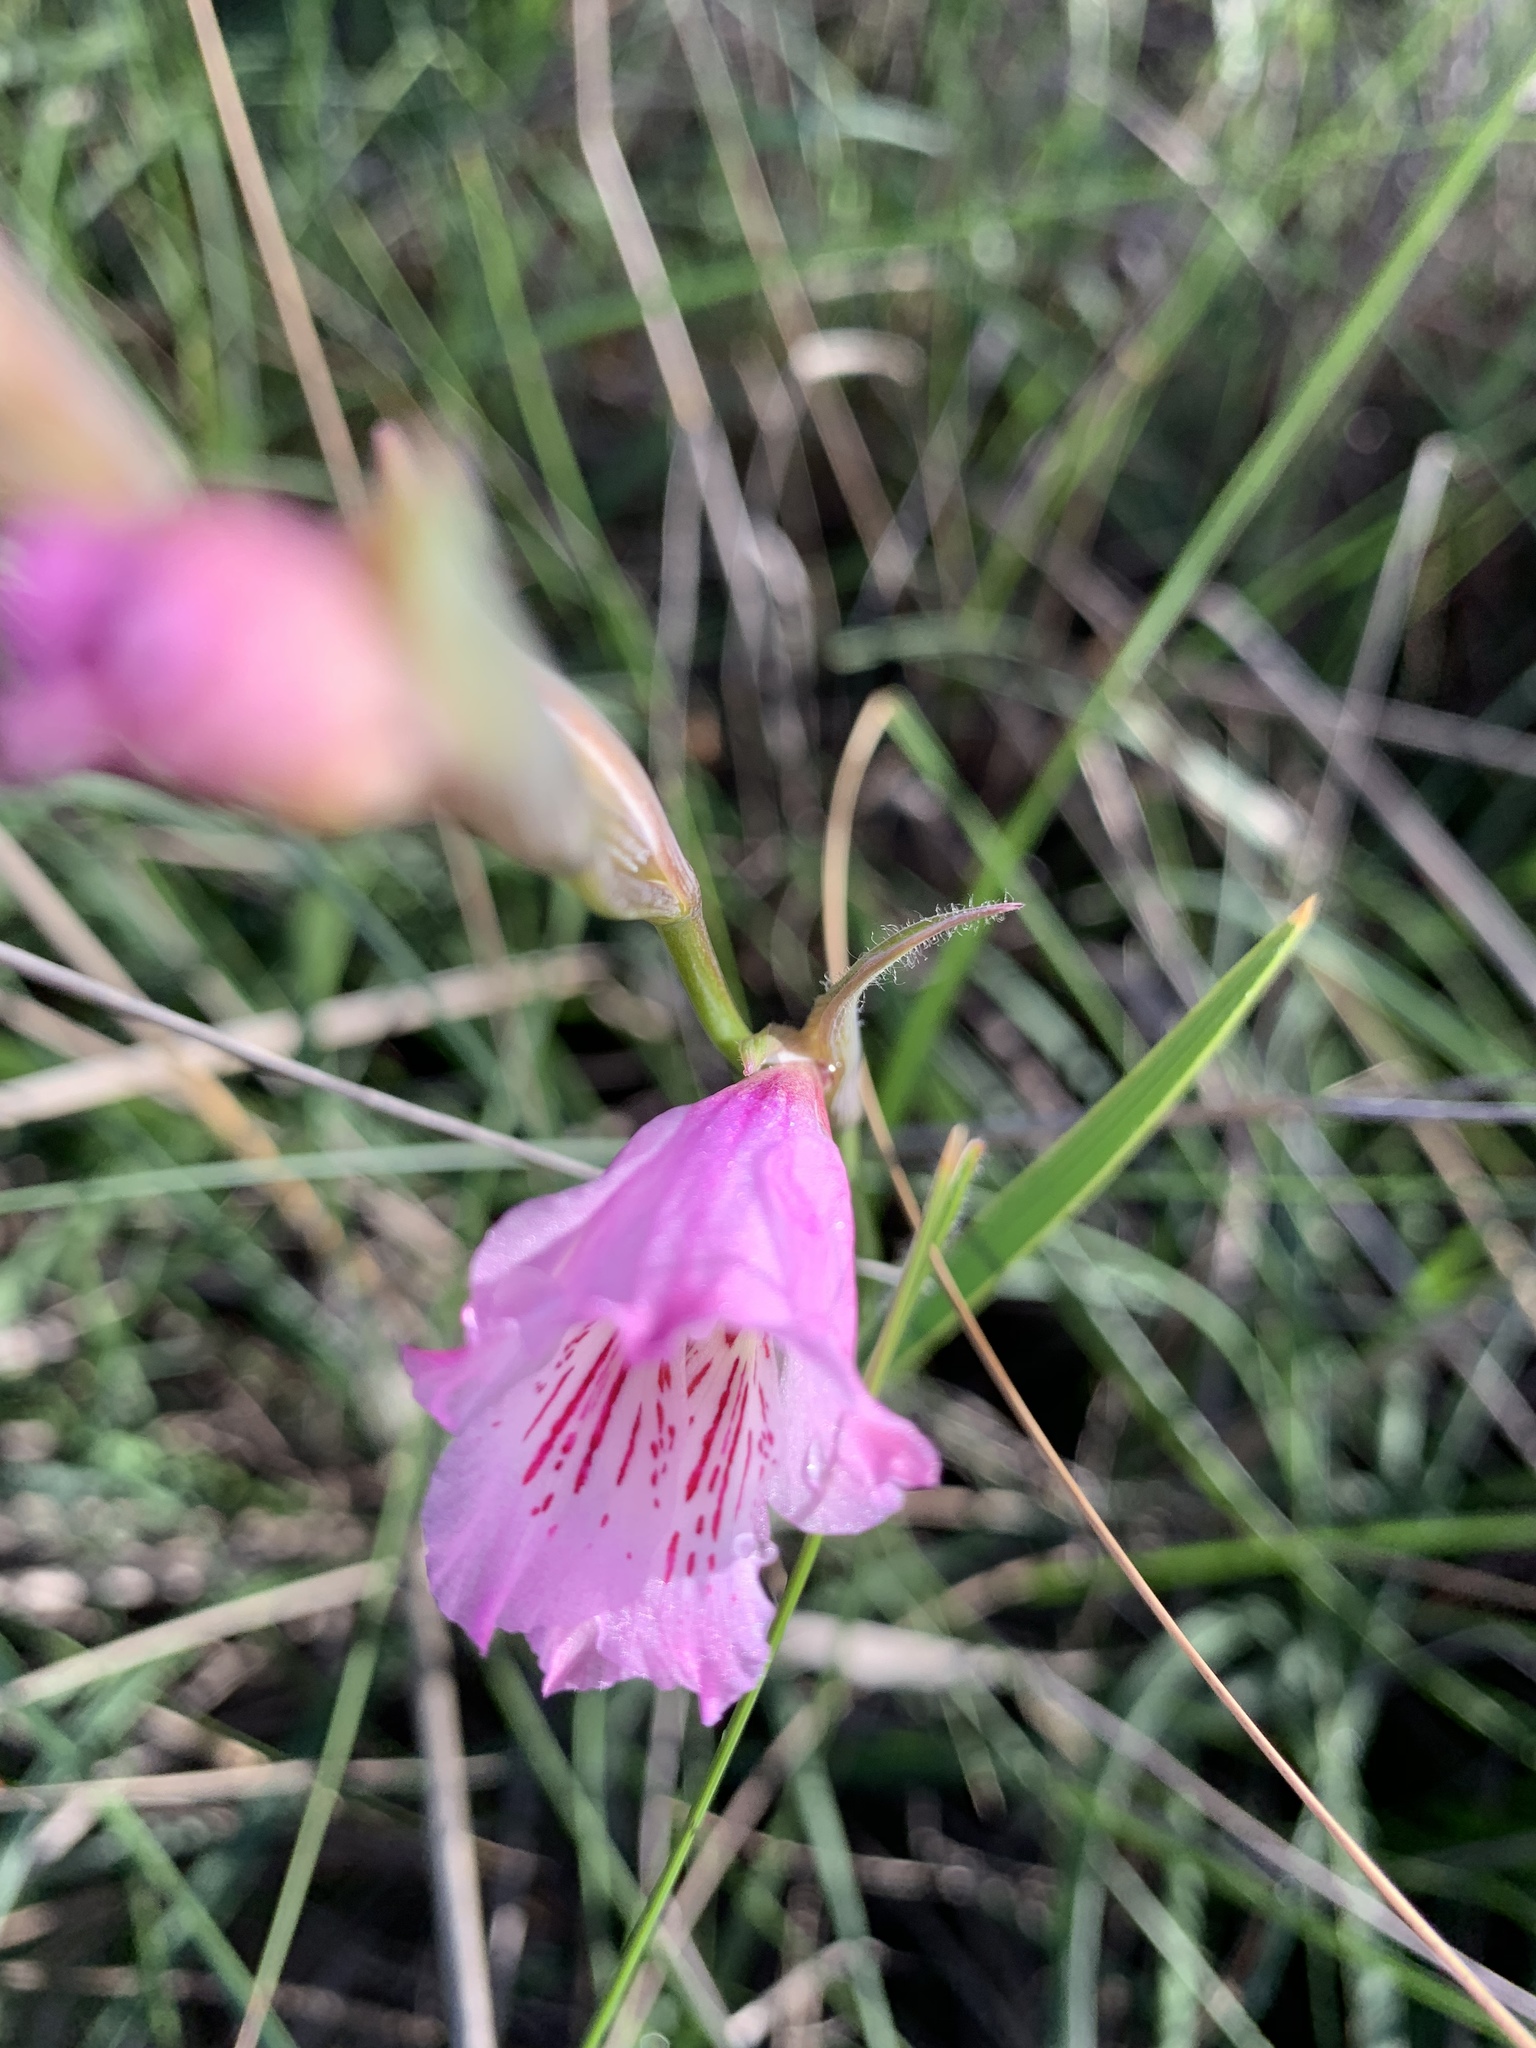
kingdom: Plantae
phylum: Tracheophyta
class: Liliopsida
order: Asparagales
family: Iridaceae
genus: Gladiolus
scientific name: Gladiolus hirsutus
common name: Small pink afrikaner
